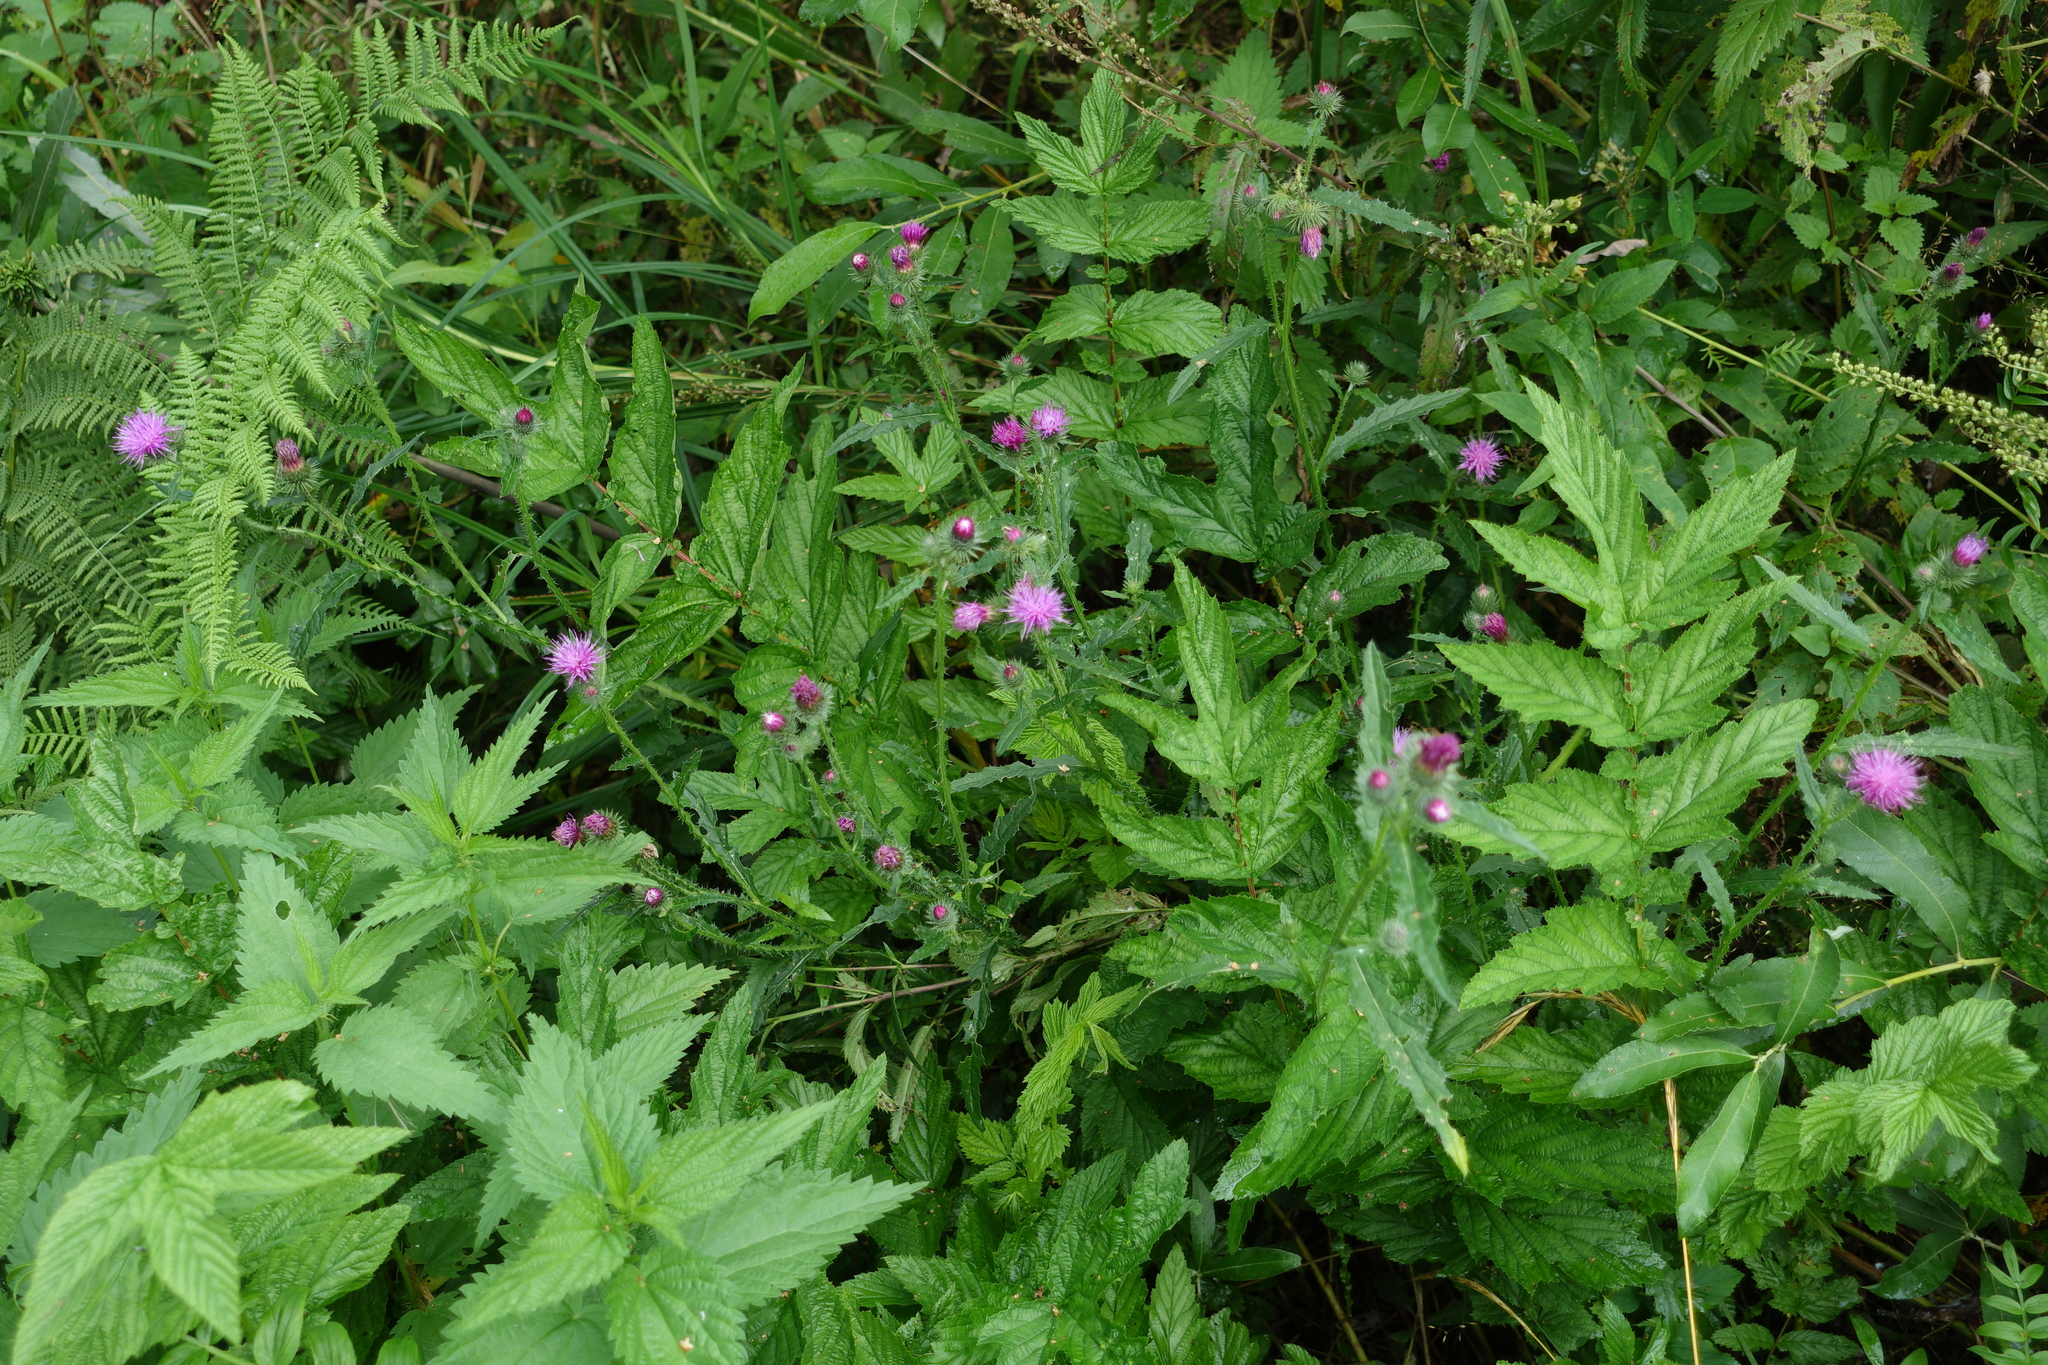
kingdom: Plantae
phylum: Tracheophyta
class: Magnoliopsida
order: Asterales
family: Asteraceae
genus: Carduus
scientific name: Carduus crispus
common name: Welted thistle
